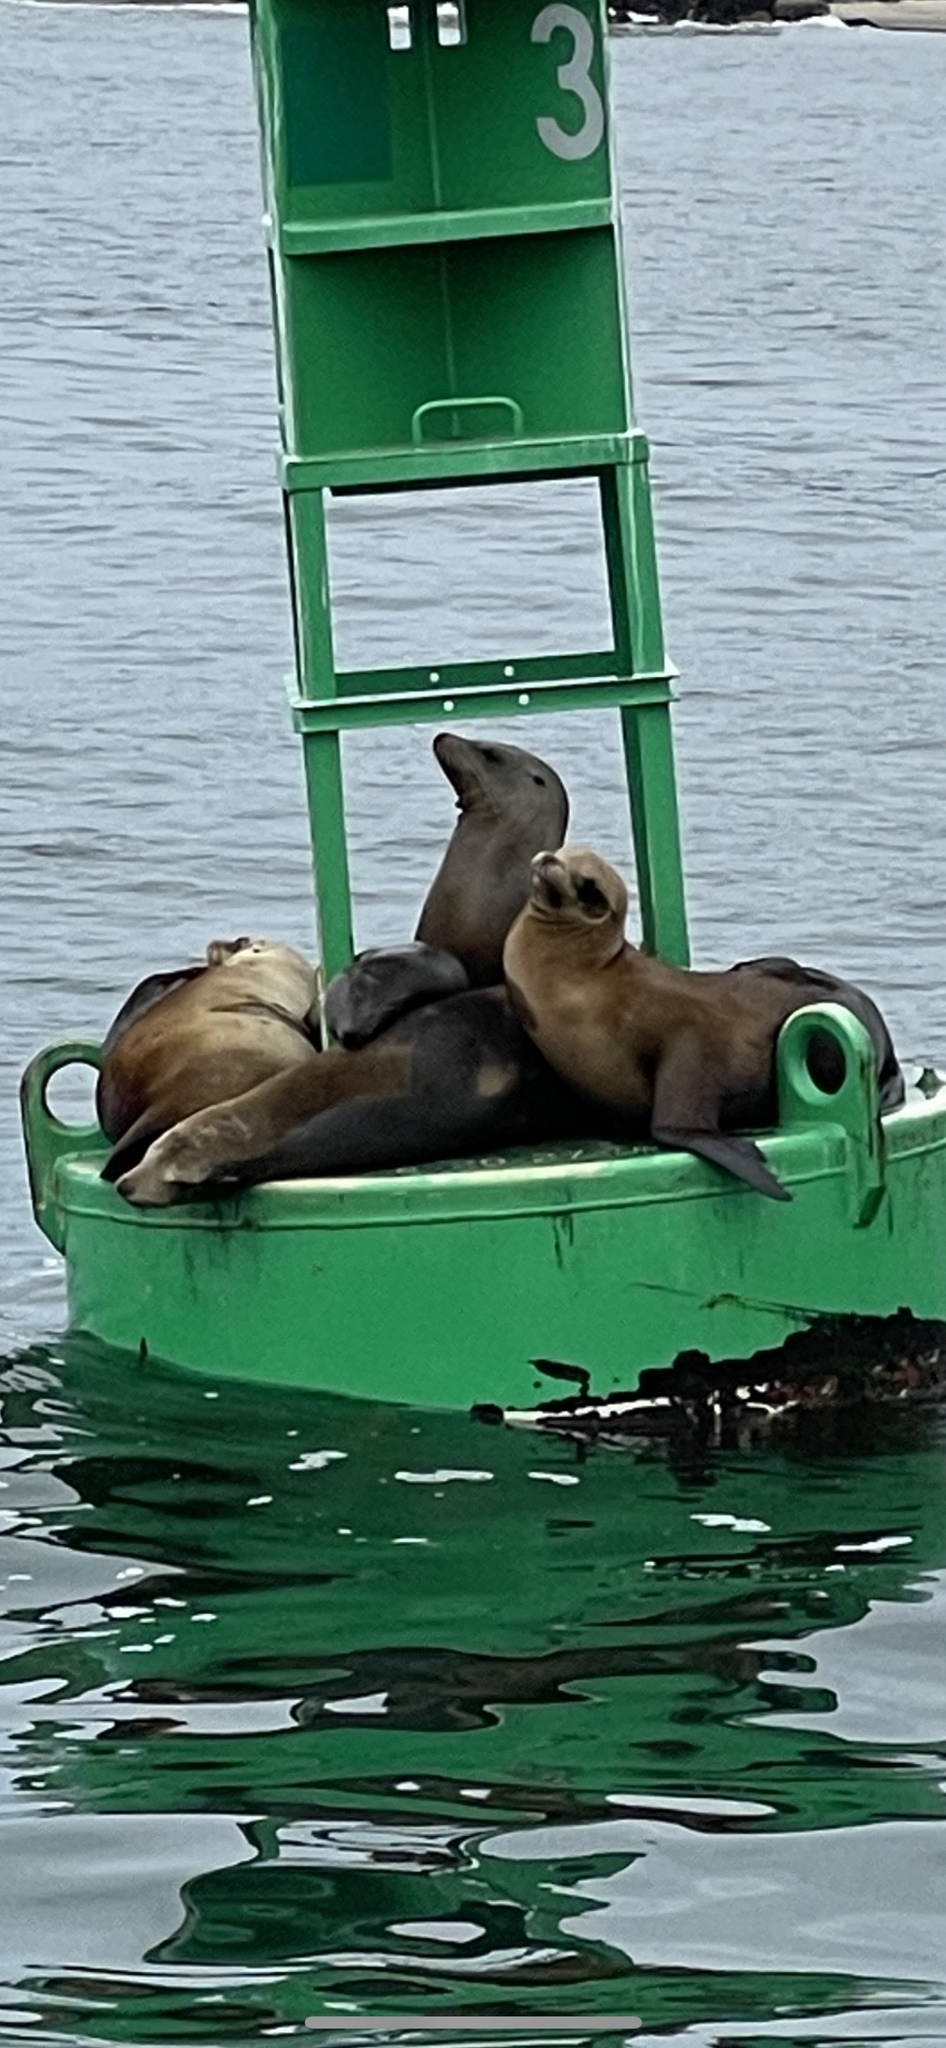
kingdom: Animalia
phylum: Chordata
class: Mammalia
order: Carnivora
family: Otariidae
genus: Zalophus
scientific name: Zalophus californianus
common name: California sea lion
